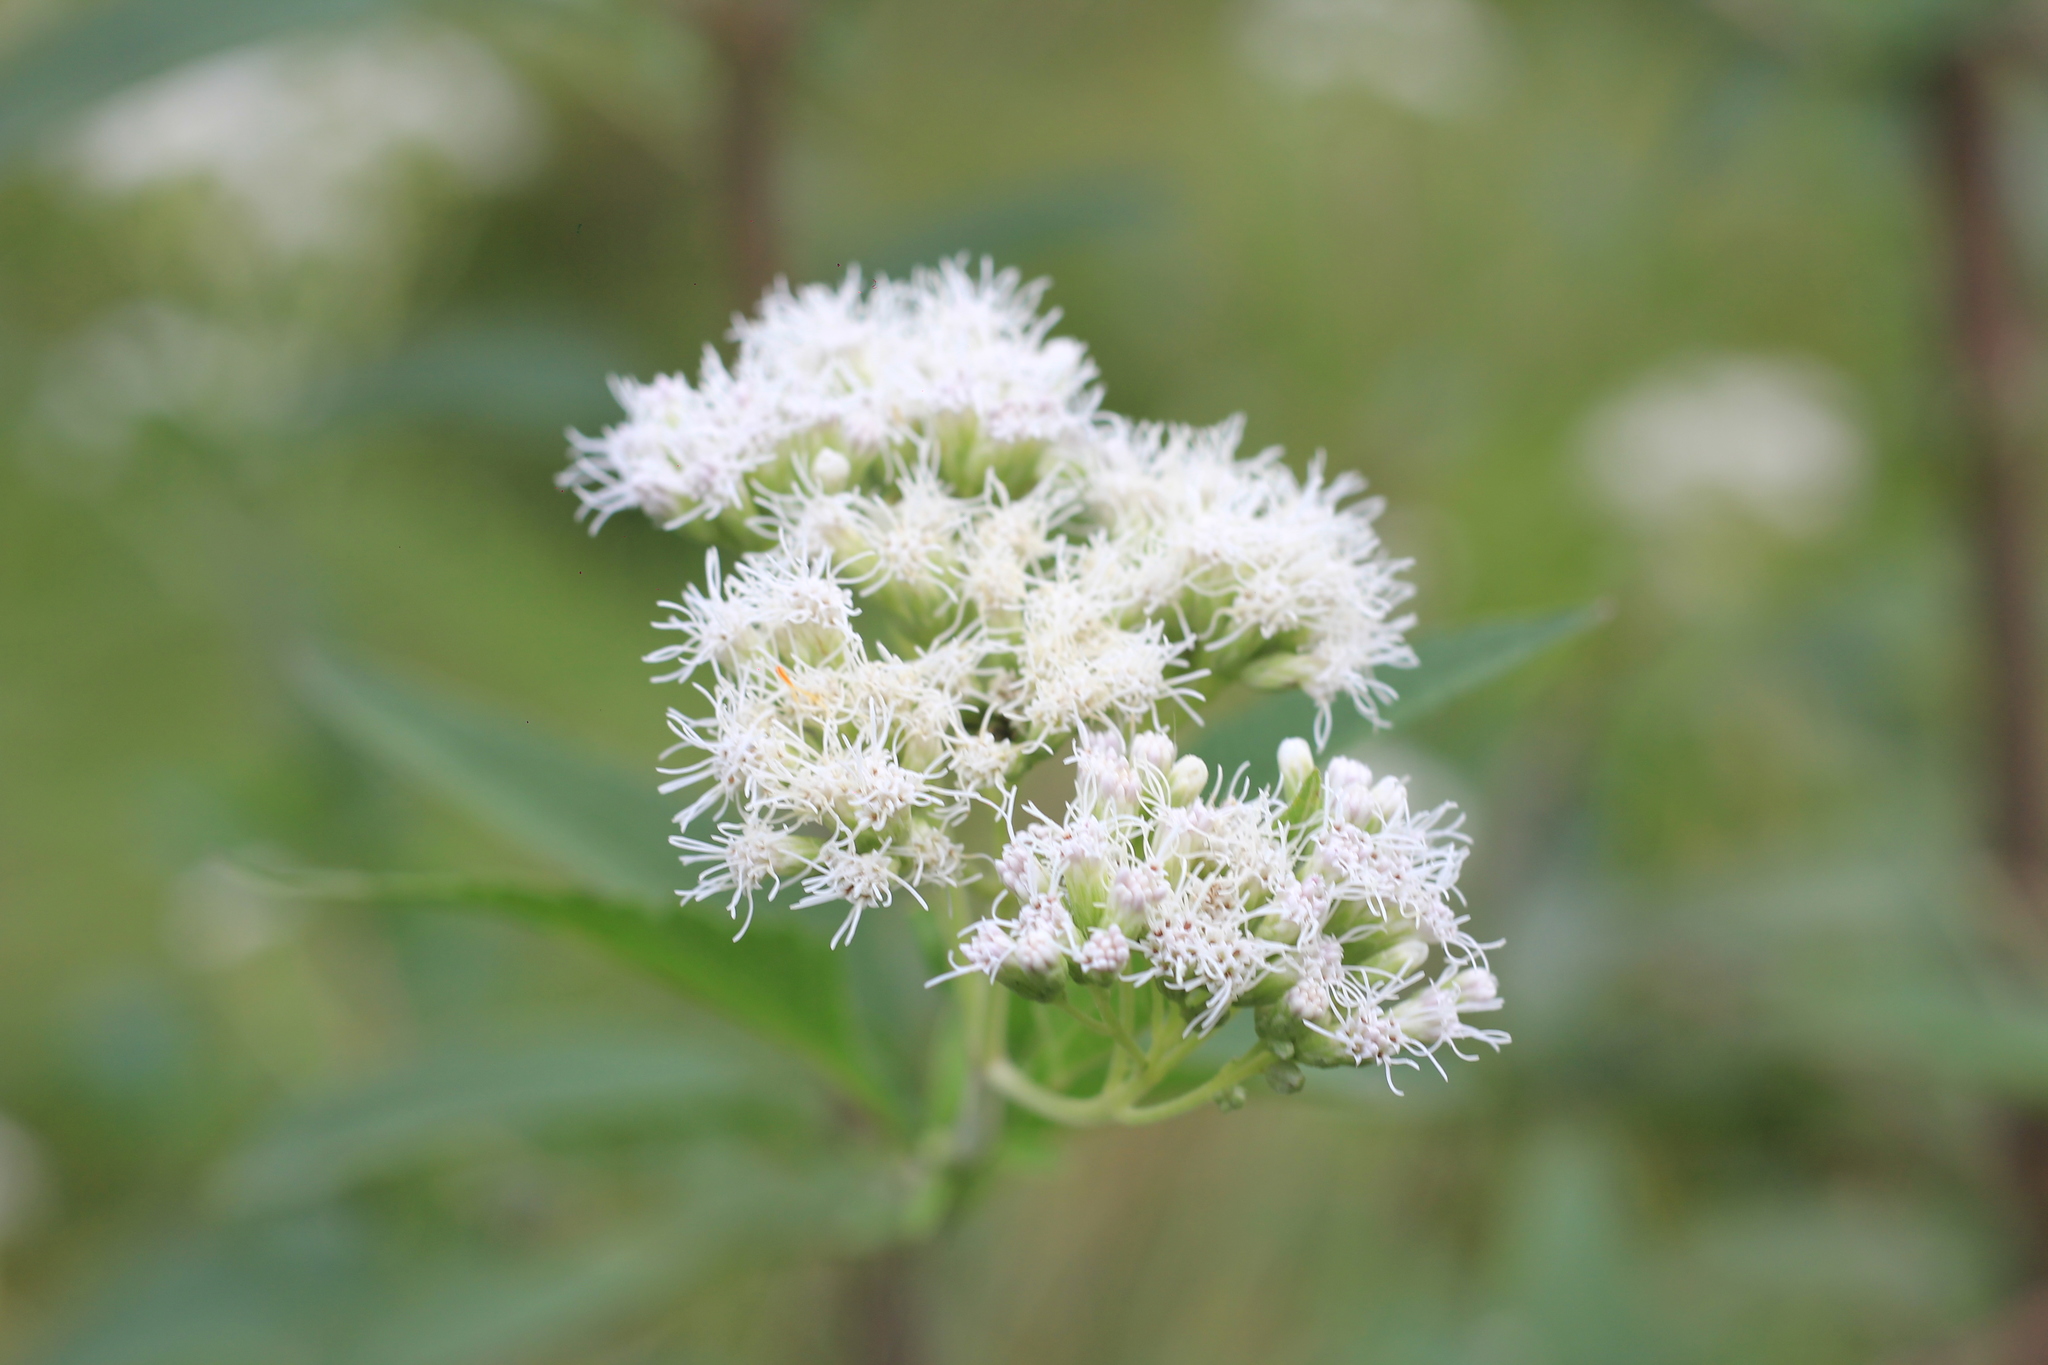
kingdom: Plantae
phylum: Tracheophyta
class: Magnoliopsida
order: Asterales
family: Asteraceae
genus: Austroeupatorium
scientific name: Austroeupatorium inulifolium
